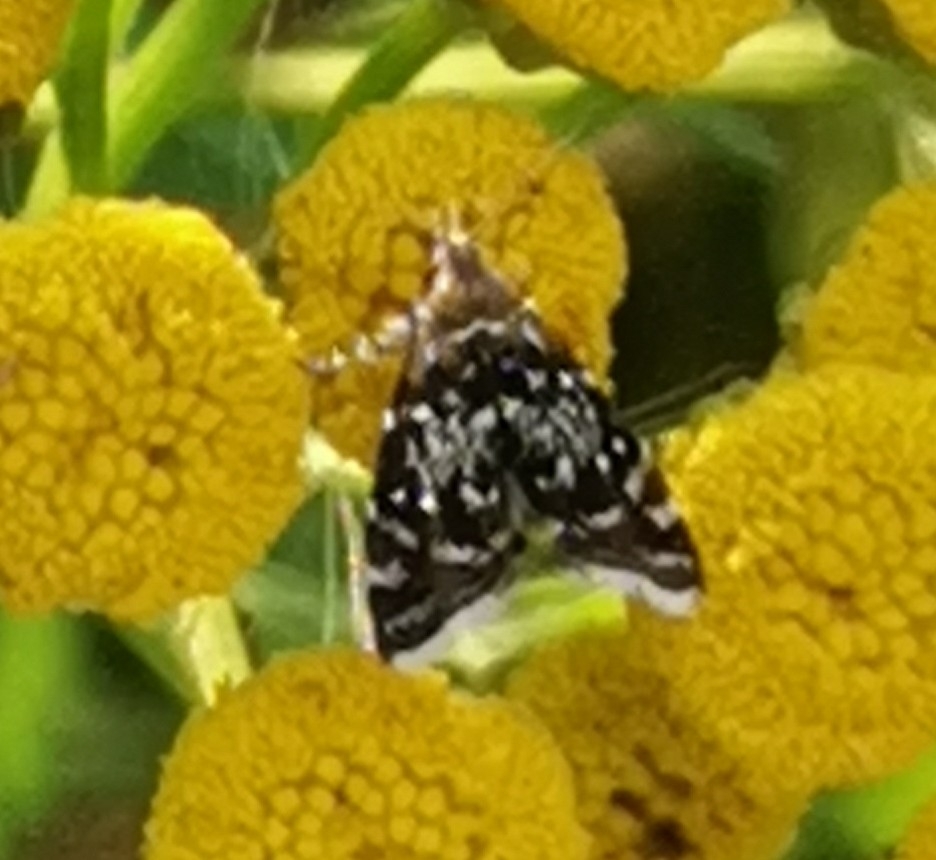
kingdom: Animalia
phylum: Arthropoda
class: Insecta
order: Lepidoptera
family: Choreutidae
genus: Prochoreutis
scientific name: Prochoreutis myllerana
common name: Small metal-mark
